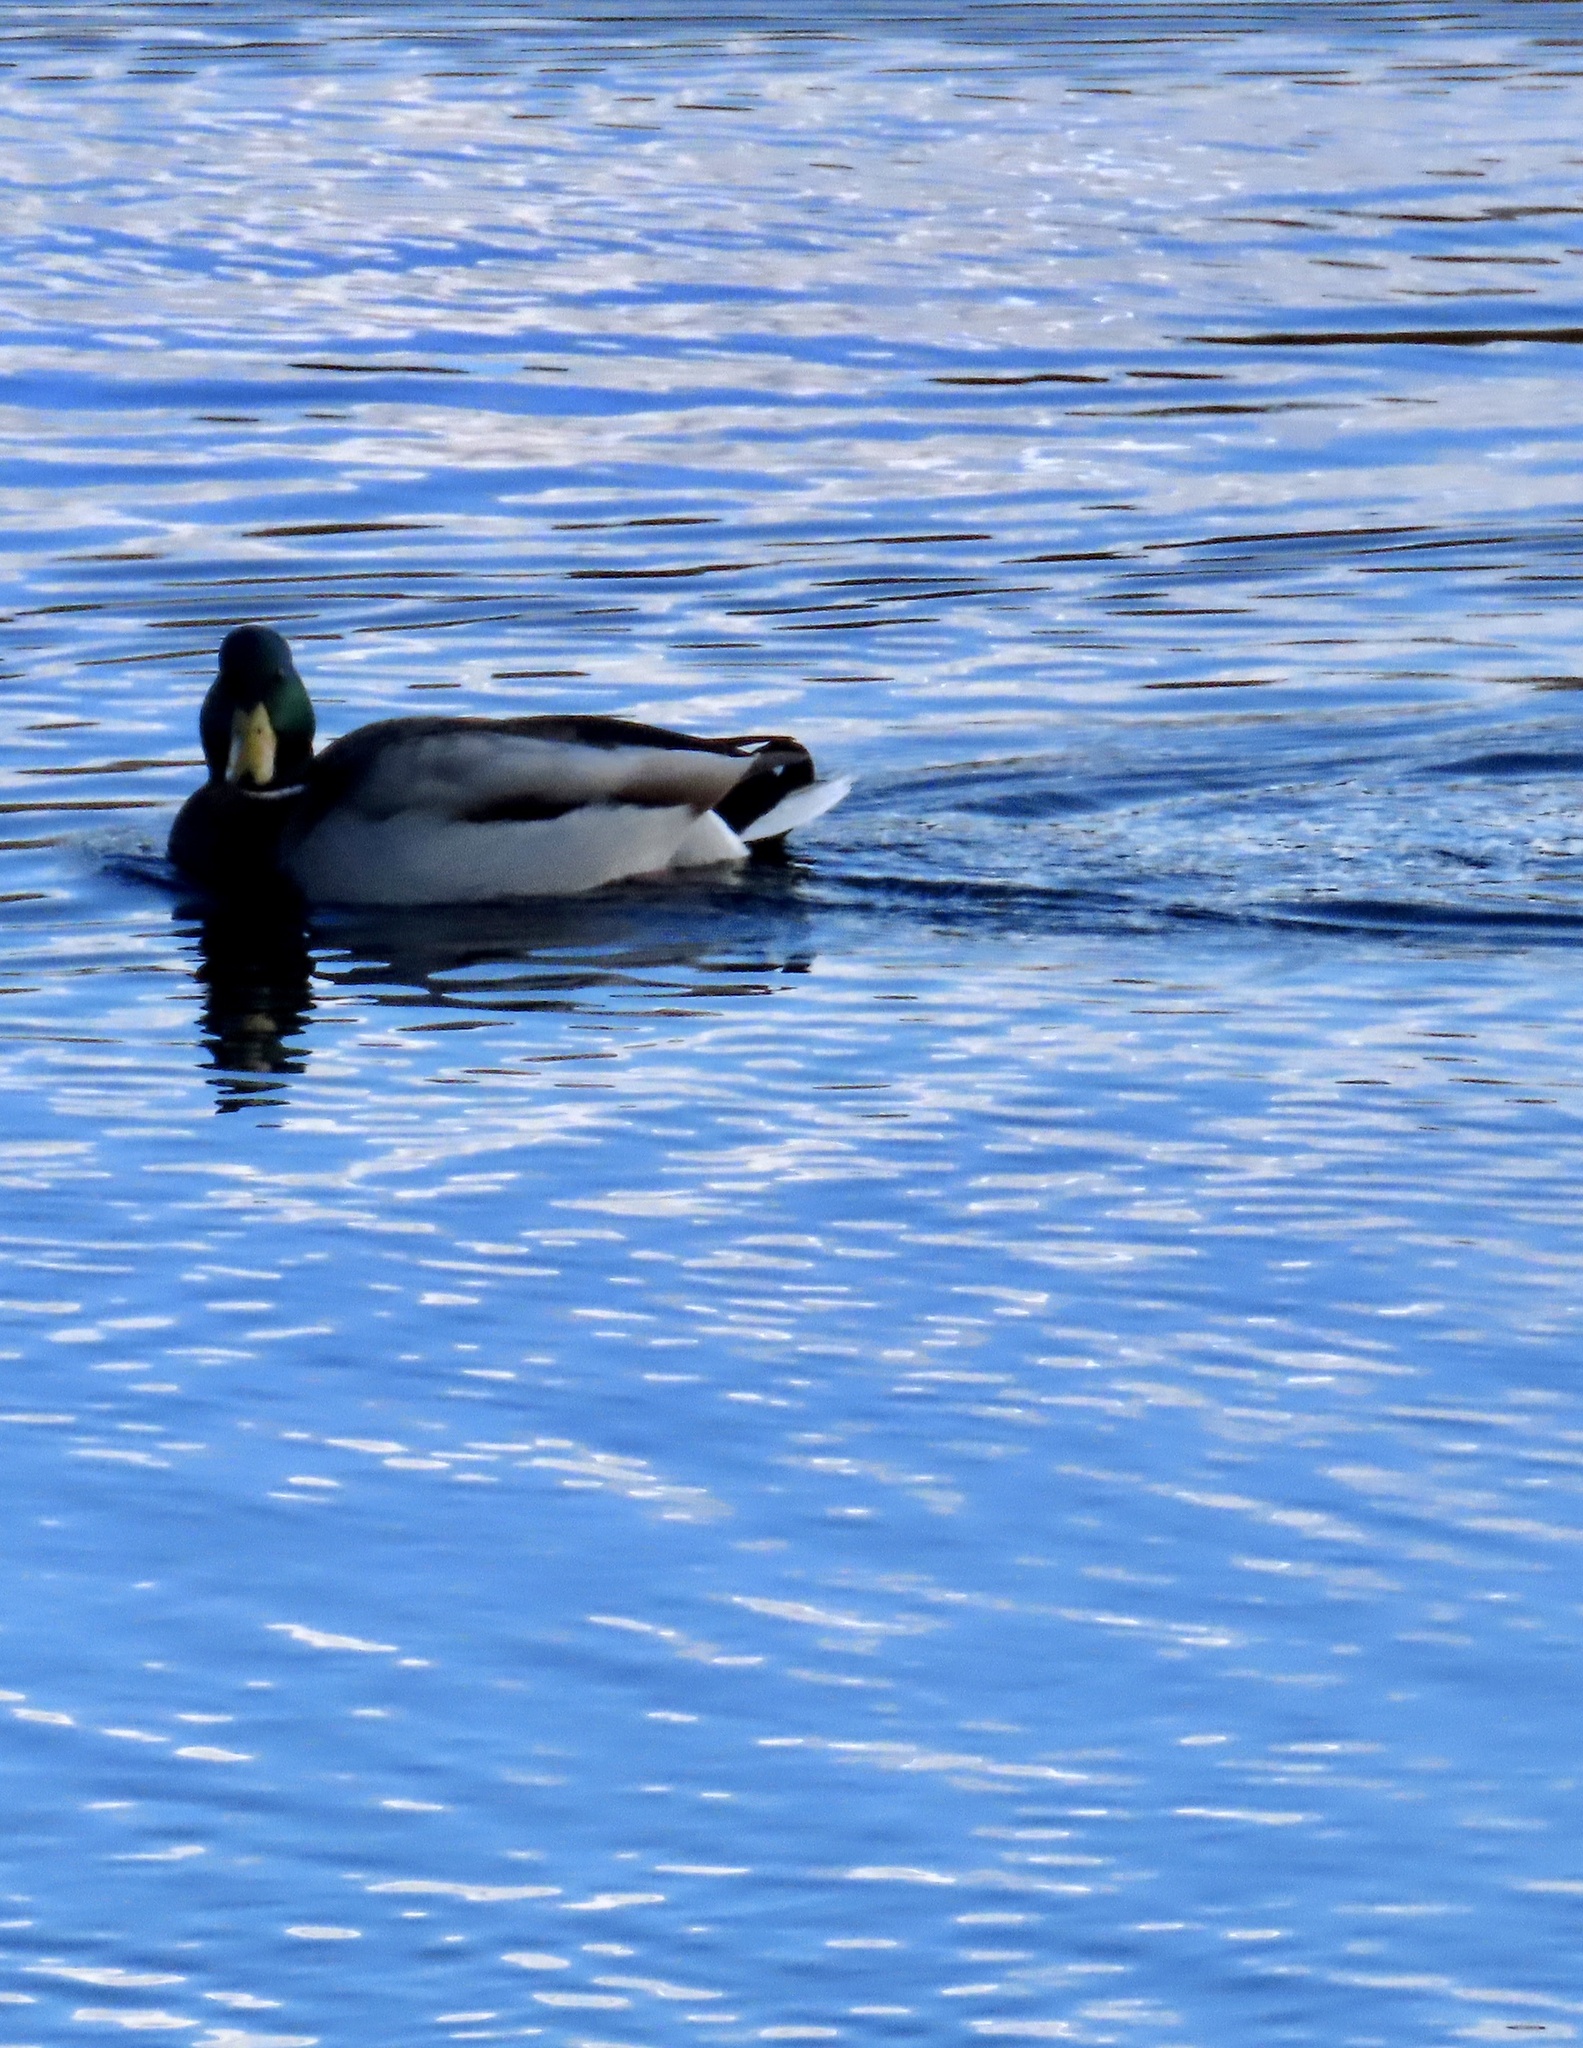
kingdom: Animalia
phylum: Chordata
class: Aves
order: Anseriformes
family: Anatidae
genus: Anas
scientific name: Anas platyrhynchos
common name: Mallard
